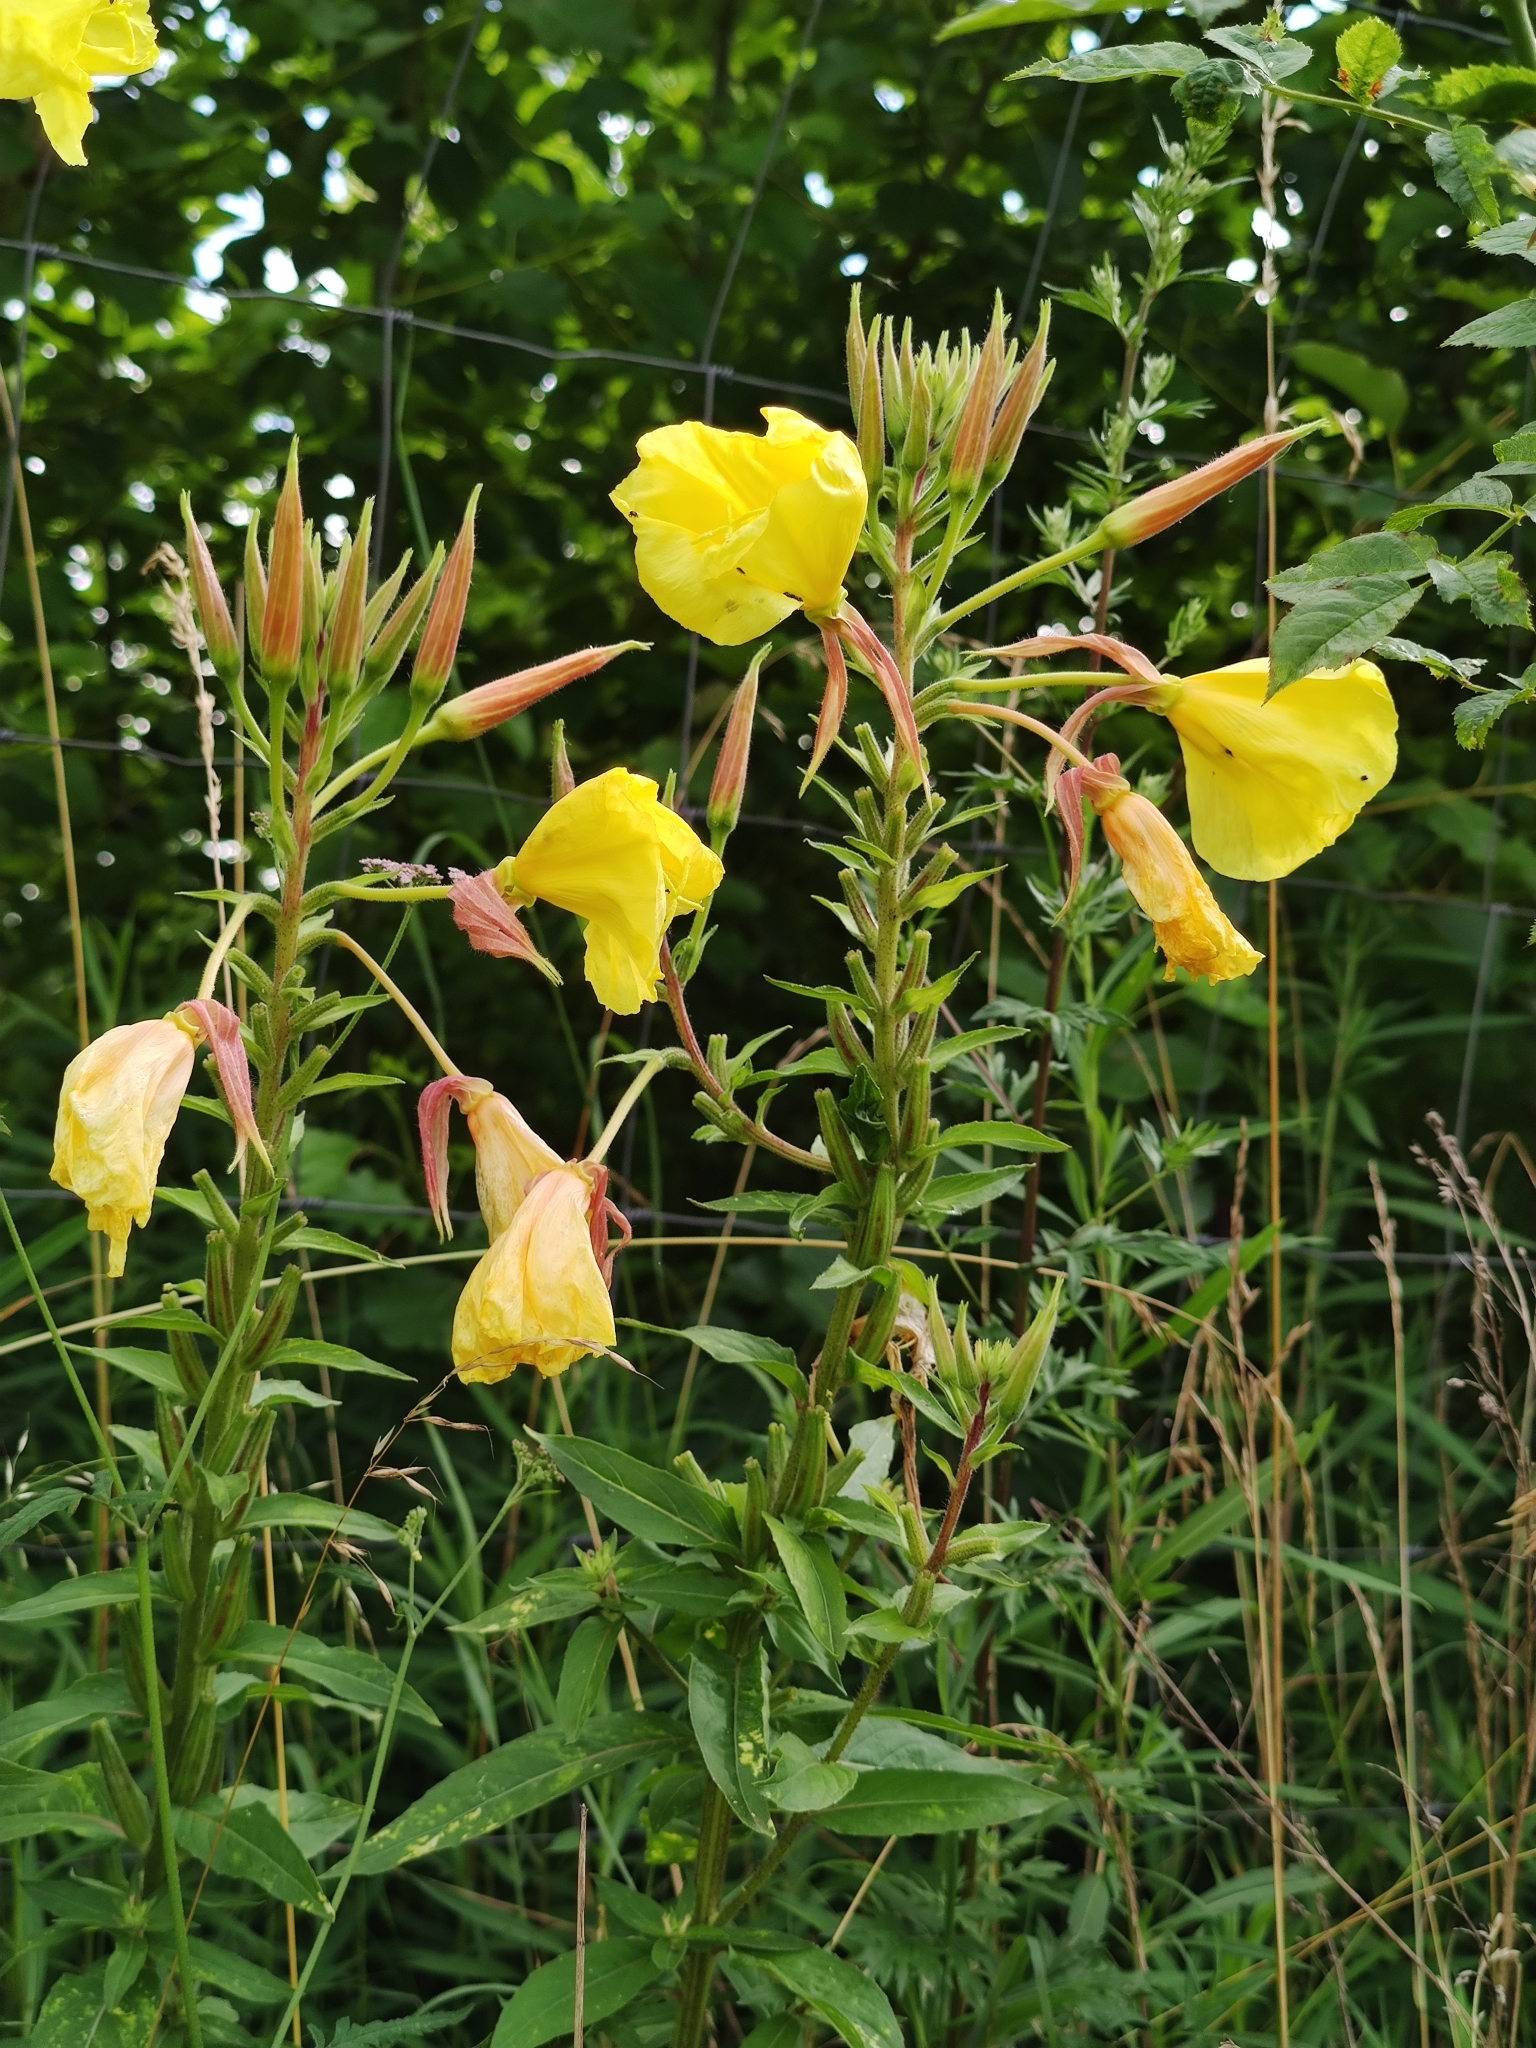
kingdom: Plantae
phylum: Tracheophyta
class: Magnoliopsida
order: Myrtales
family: Onagraceae
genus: Oenothera
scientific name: Oenothera glazioviana
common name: Large-flowered evening-primrose
